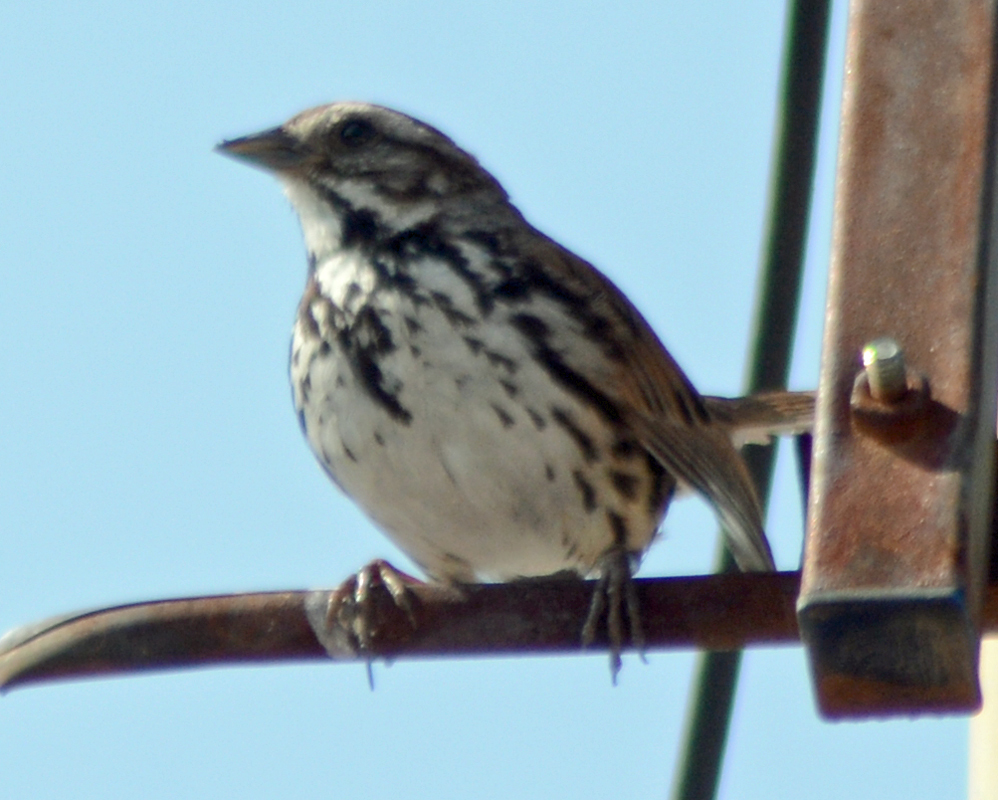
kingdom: Animalia
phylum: Chordata
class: Aves
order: Passeriformes
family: Passerellidae
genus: Melospiza
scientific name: Melospiza melodia
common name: Song sparrow
